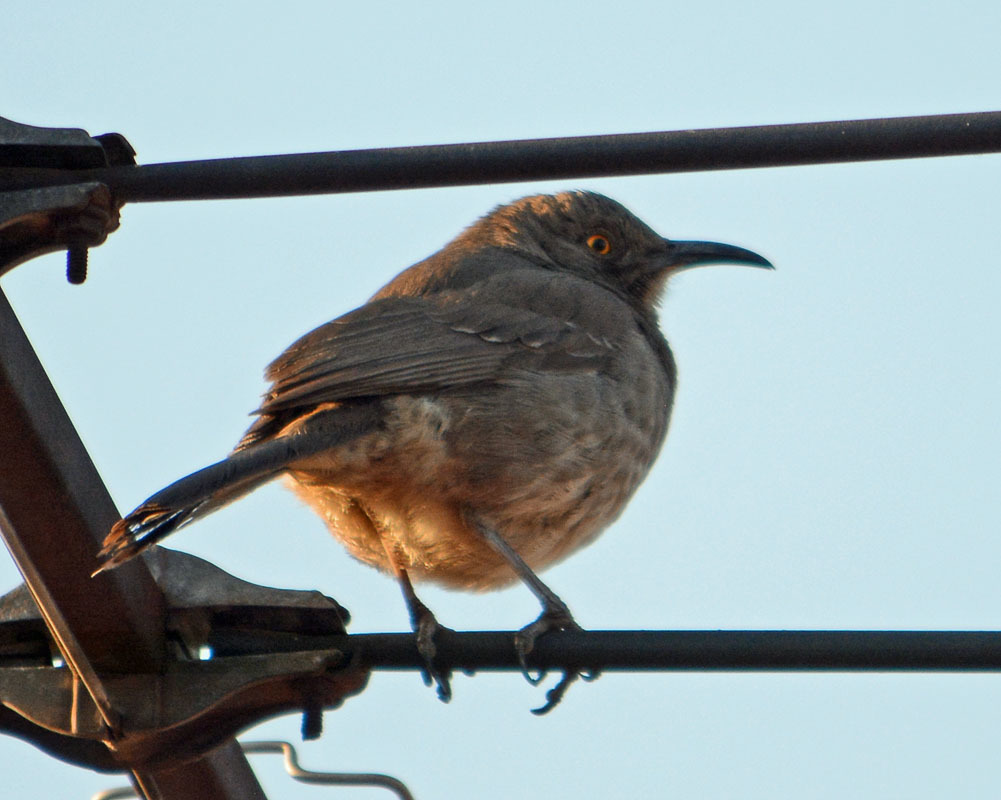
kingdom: Animalia
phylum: Chordata
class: Aves
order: Passeriformes
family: Mimidae
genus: Toxostoma
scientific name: Toxostoma curvirostre
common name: Curve-billed thrasher
